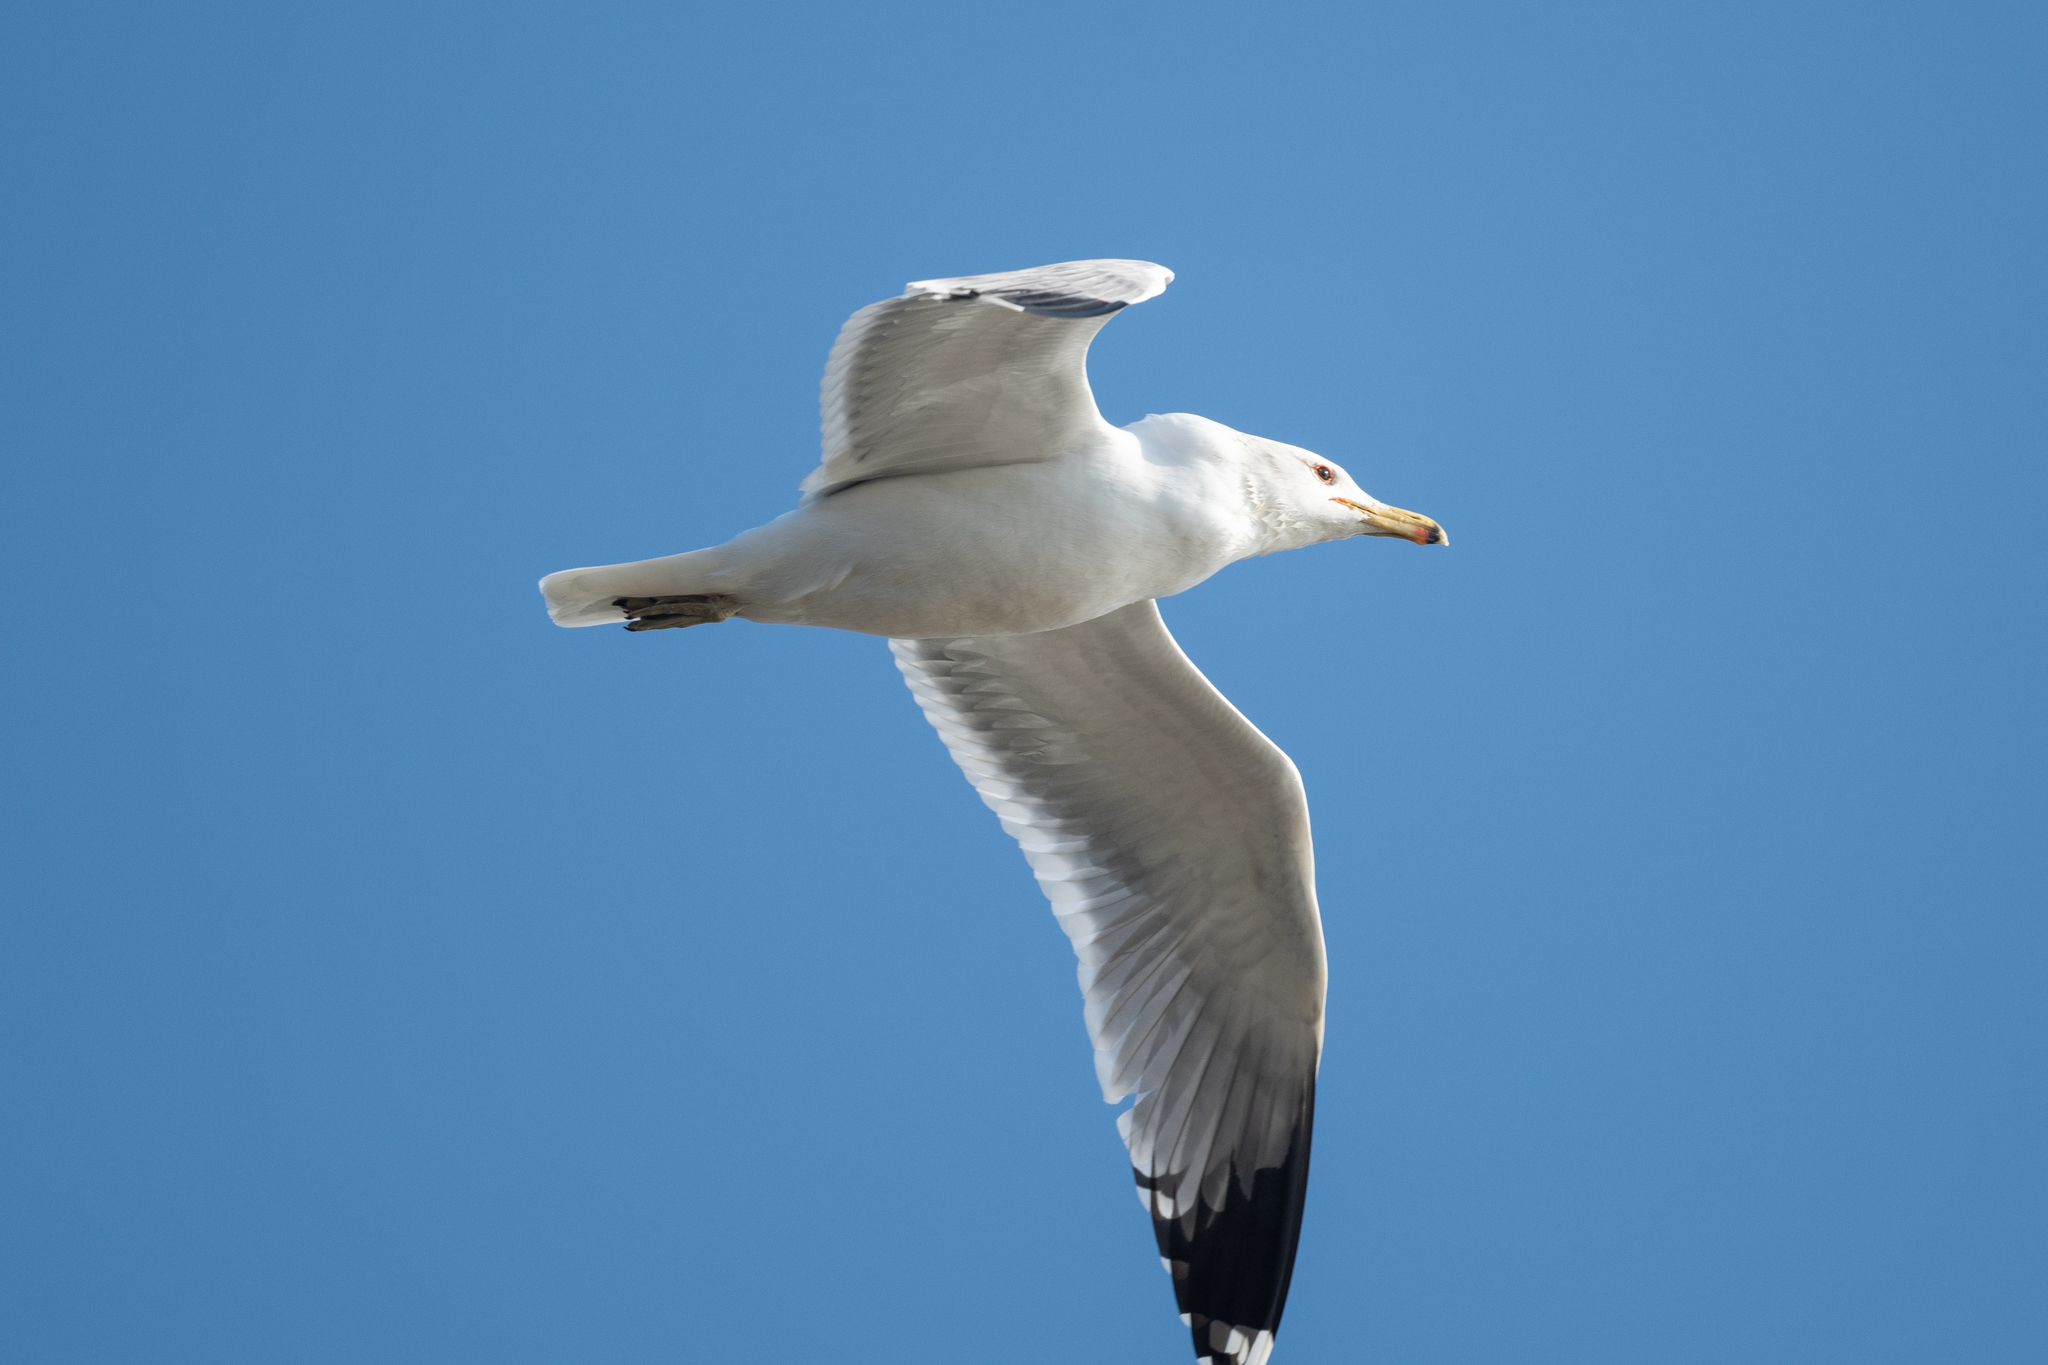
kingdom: Animalia
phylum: Chordata
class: Aves
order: Charadriiformes
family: Laridae
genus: Larus
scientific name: Larus californicus
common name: California gull
